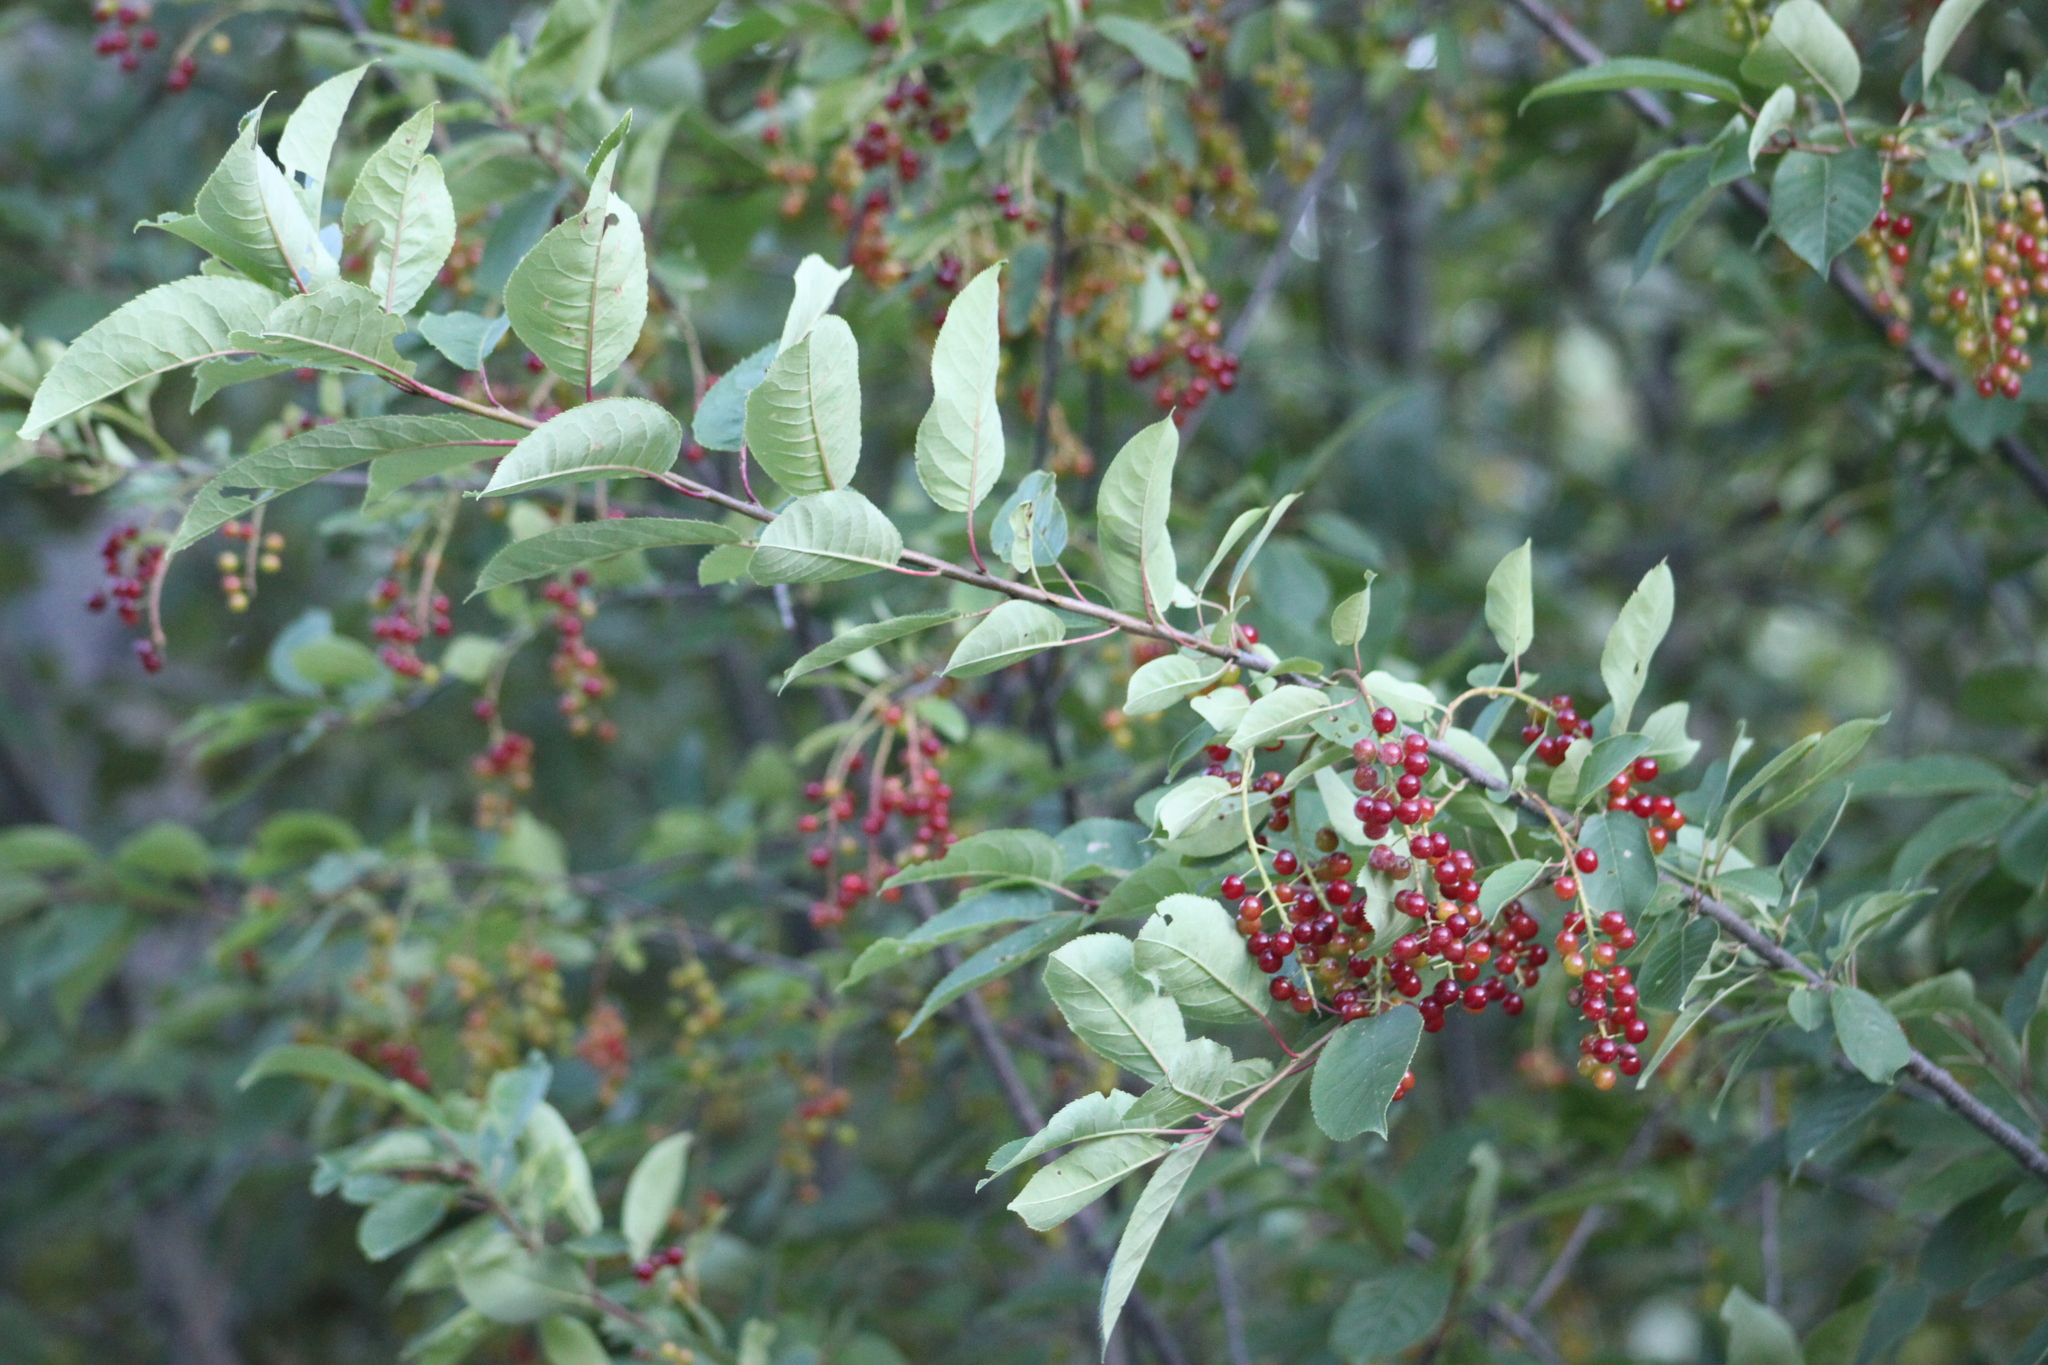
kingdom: Plantae
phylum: Tracheophyta
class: Magnoliopsida
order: Rosales
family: Rosaceae
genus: Prunus
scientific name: Prunus virginiana
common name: Chokecherry
